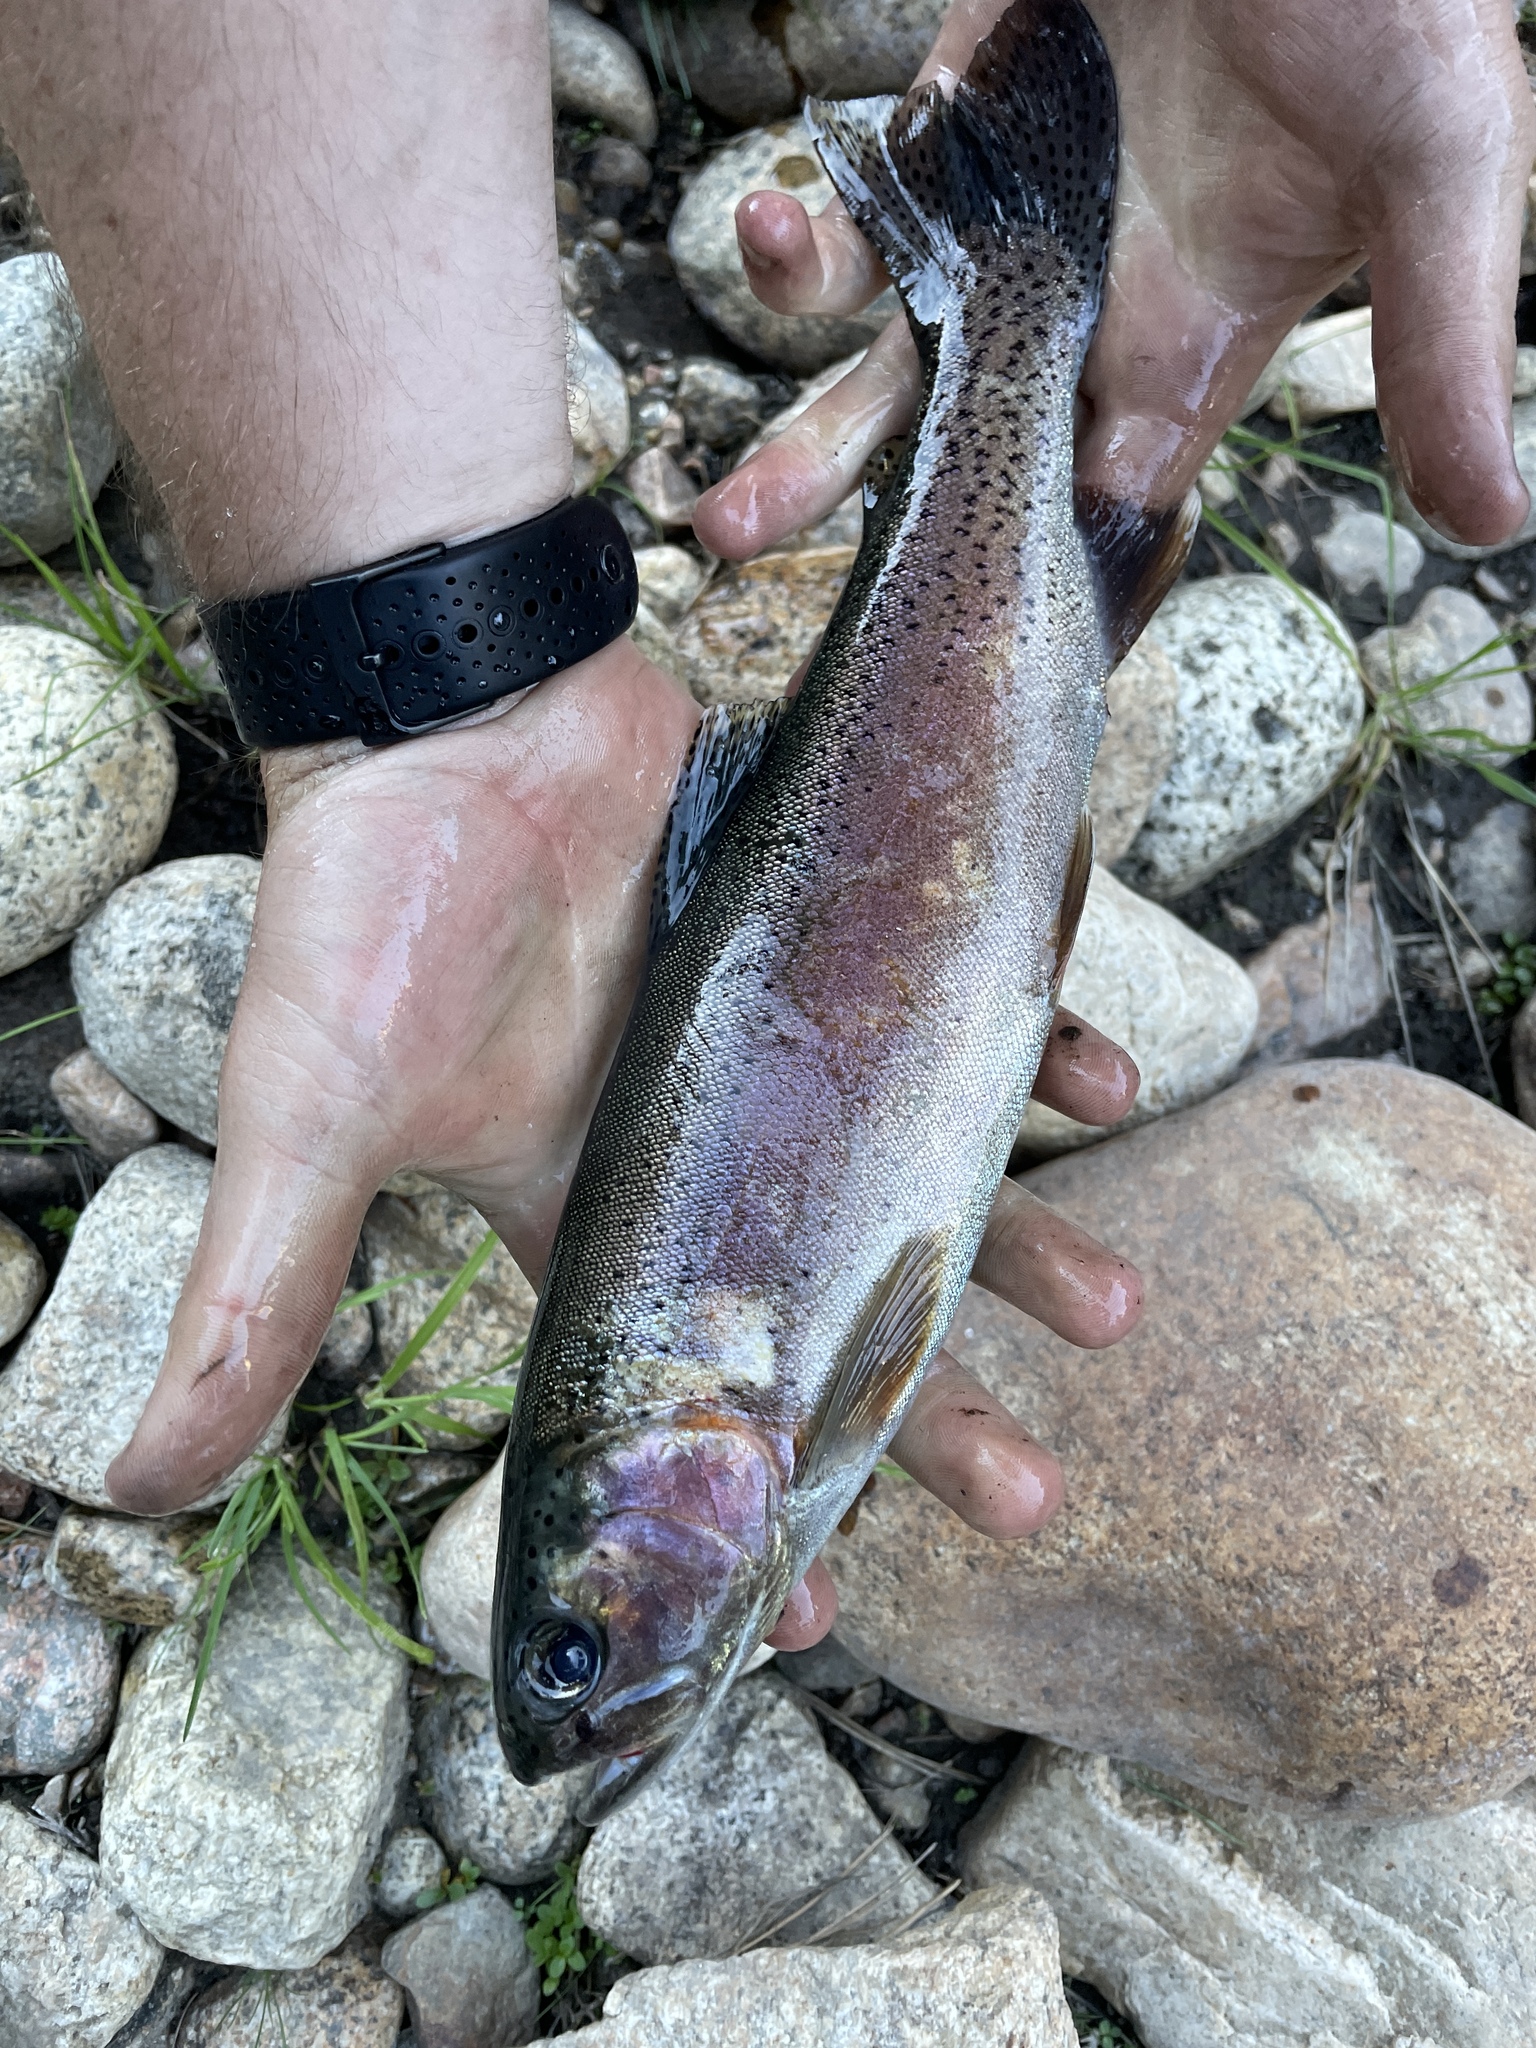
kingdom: Animalia
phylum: Chordata
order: Salmoniformes
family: Salmonidae
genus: Oncorhynchus
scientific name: Oncorhynchus mykiss
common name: Rainbow trout
